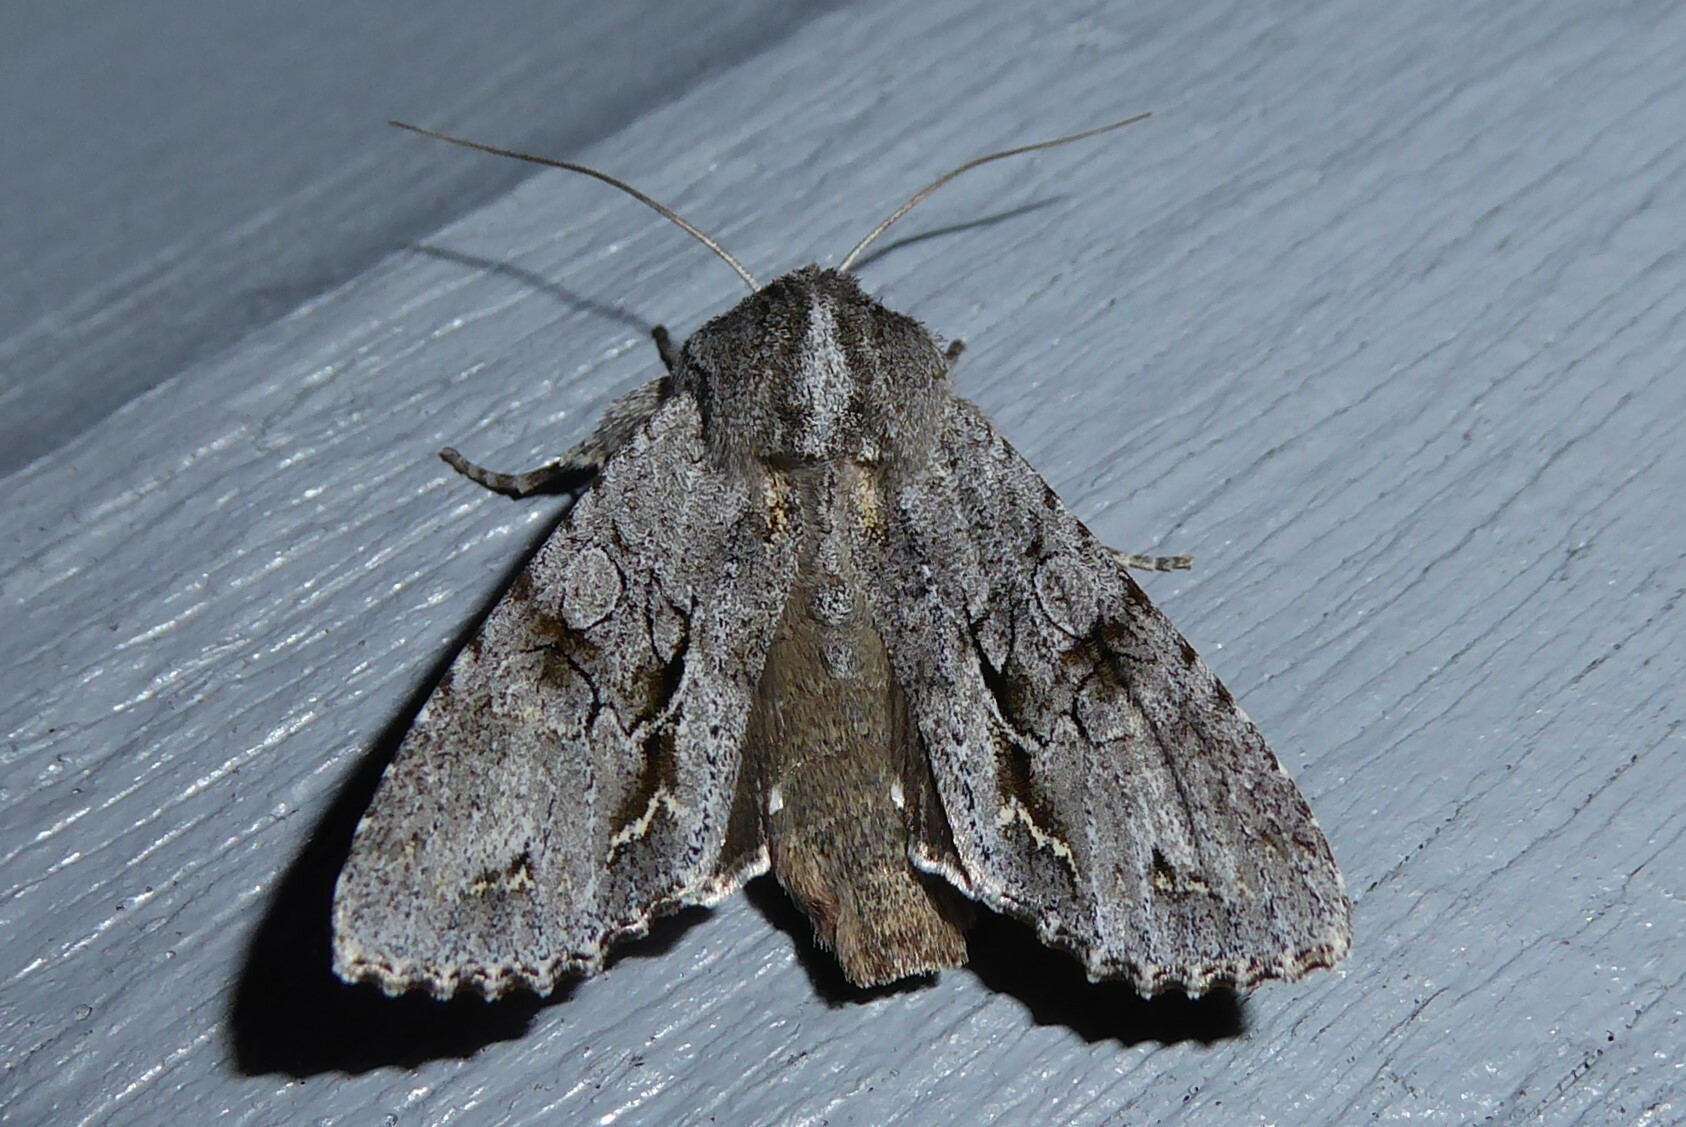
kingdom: Animalia
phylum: Arthropoda
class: Insecta
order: Lepidoptera
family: Noctuidae
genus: Ichneutica
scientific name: Ichneutica
